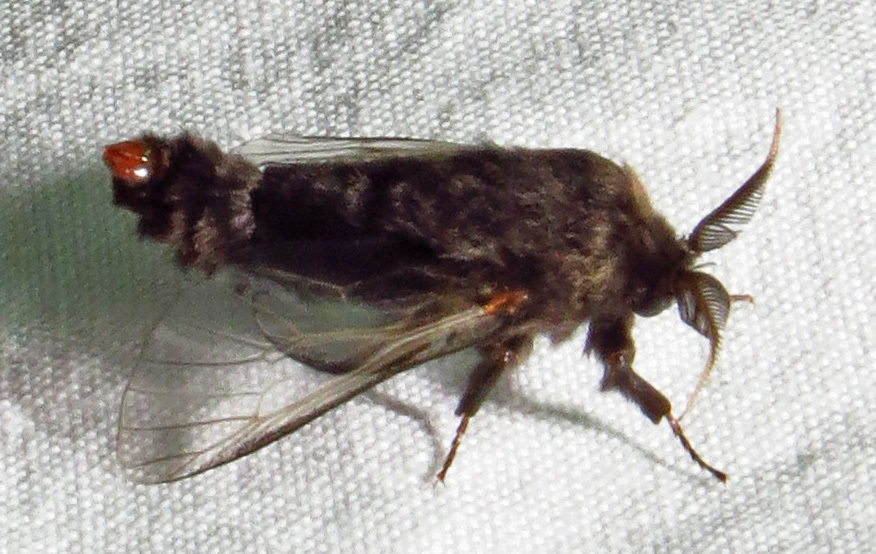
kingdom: Animalia
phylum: Arthropoda
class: Insecta
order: Lepidoptera
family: Psychidae
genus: Thyridopteryx
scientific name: Thyridopteryx ephemeraeformis
